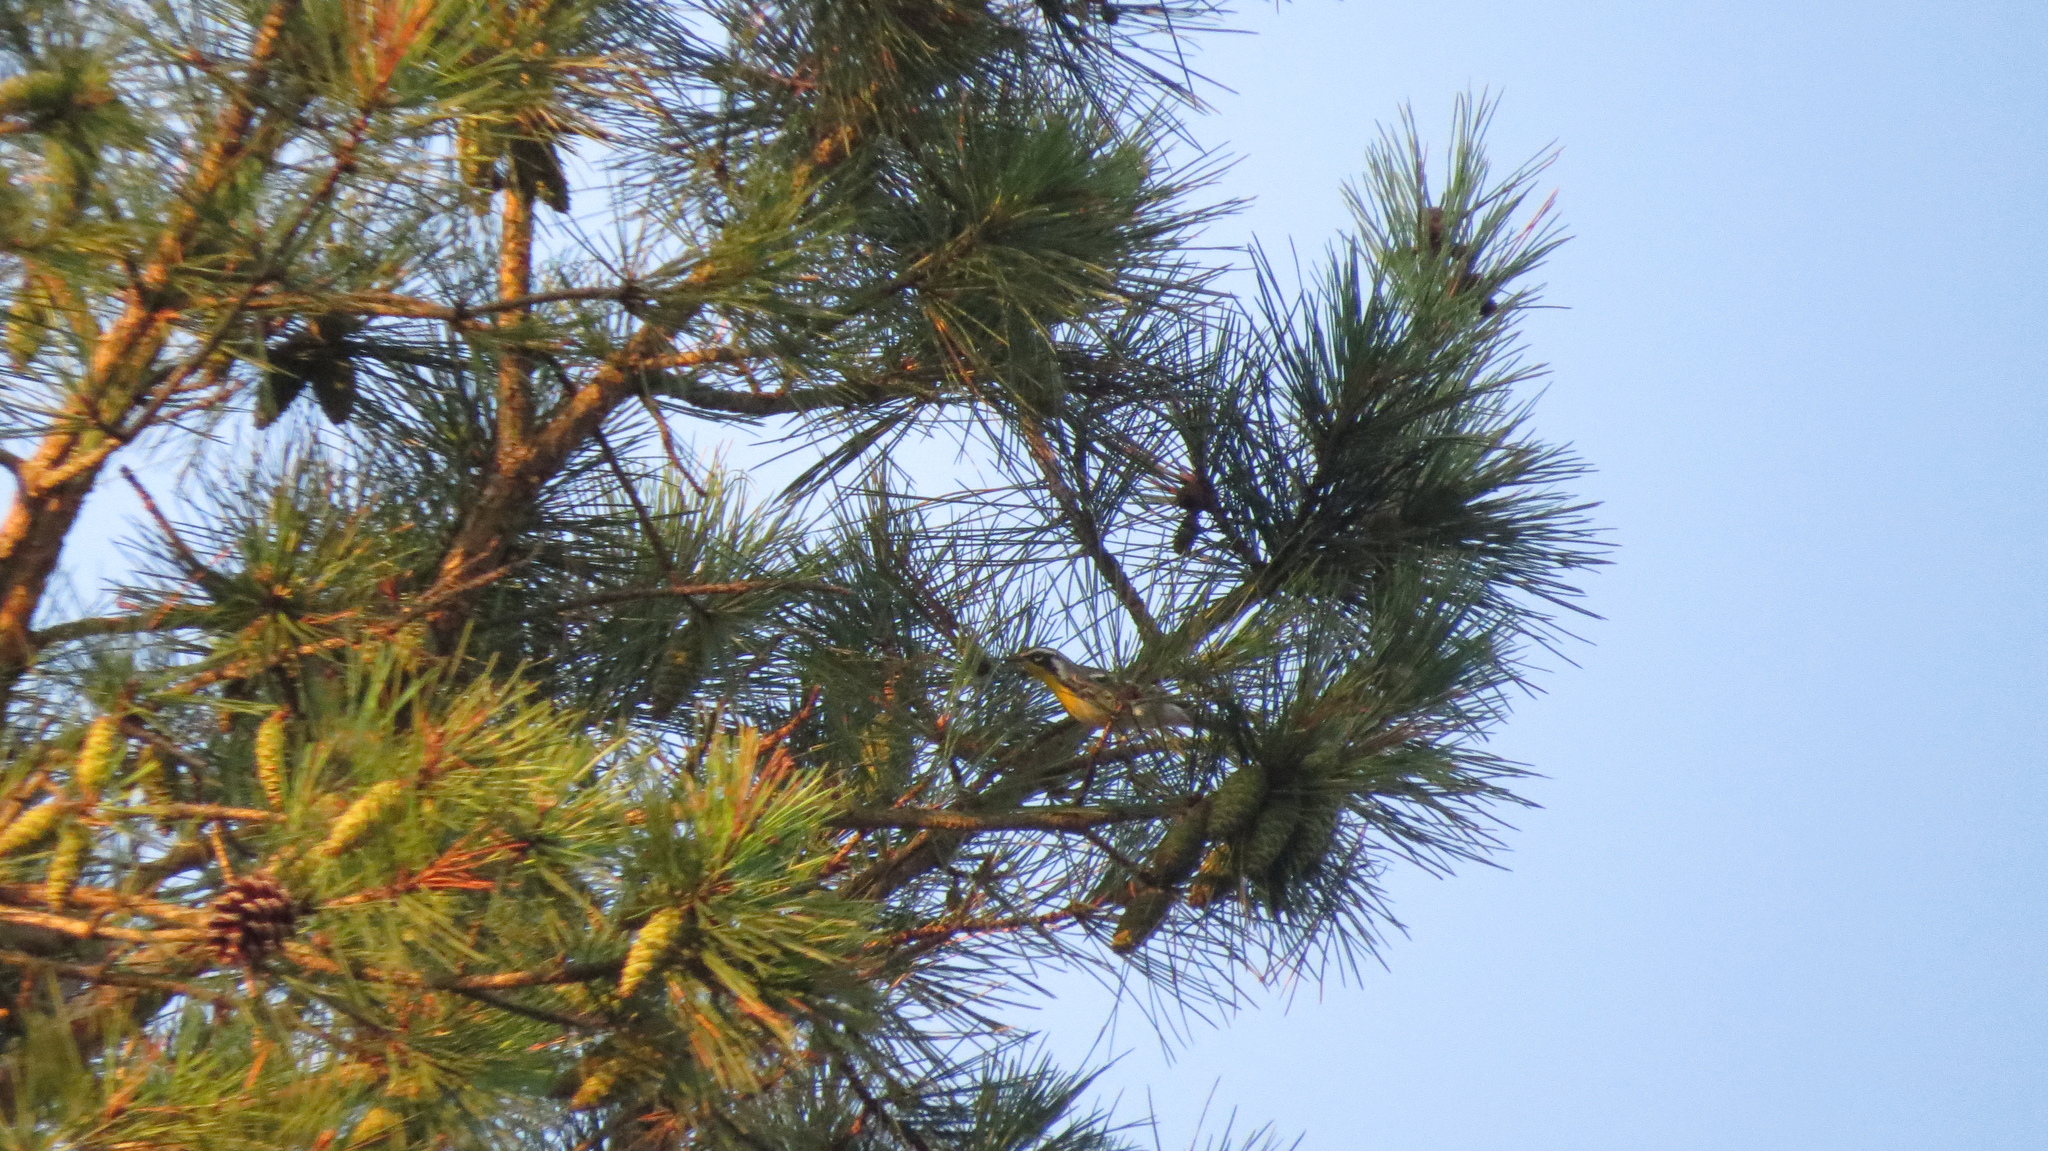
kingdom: Animalia
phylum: Chordata
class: Aves
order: Passeriformes
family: Parulidae
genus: Setophaga
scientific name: Setophaga dominica
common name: Yellow-throated warbler
